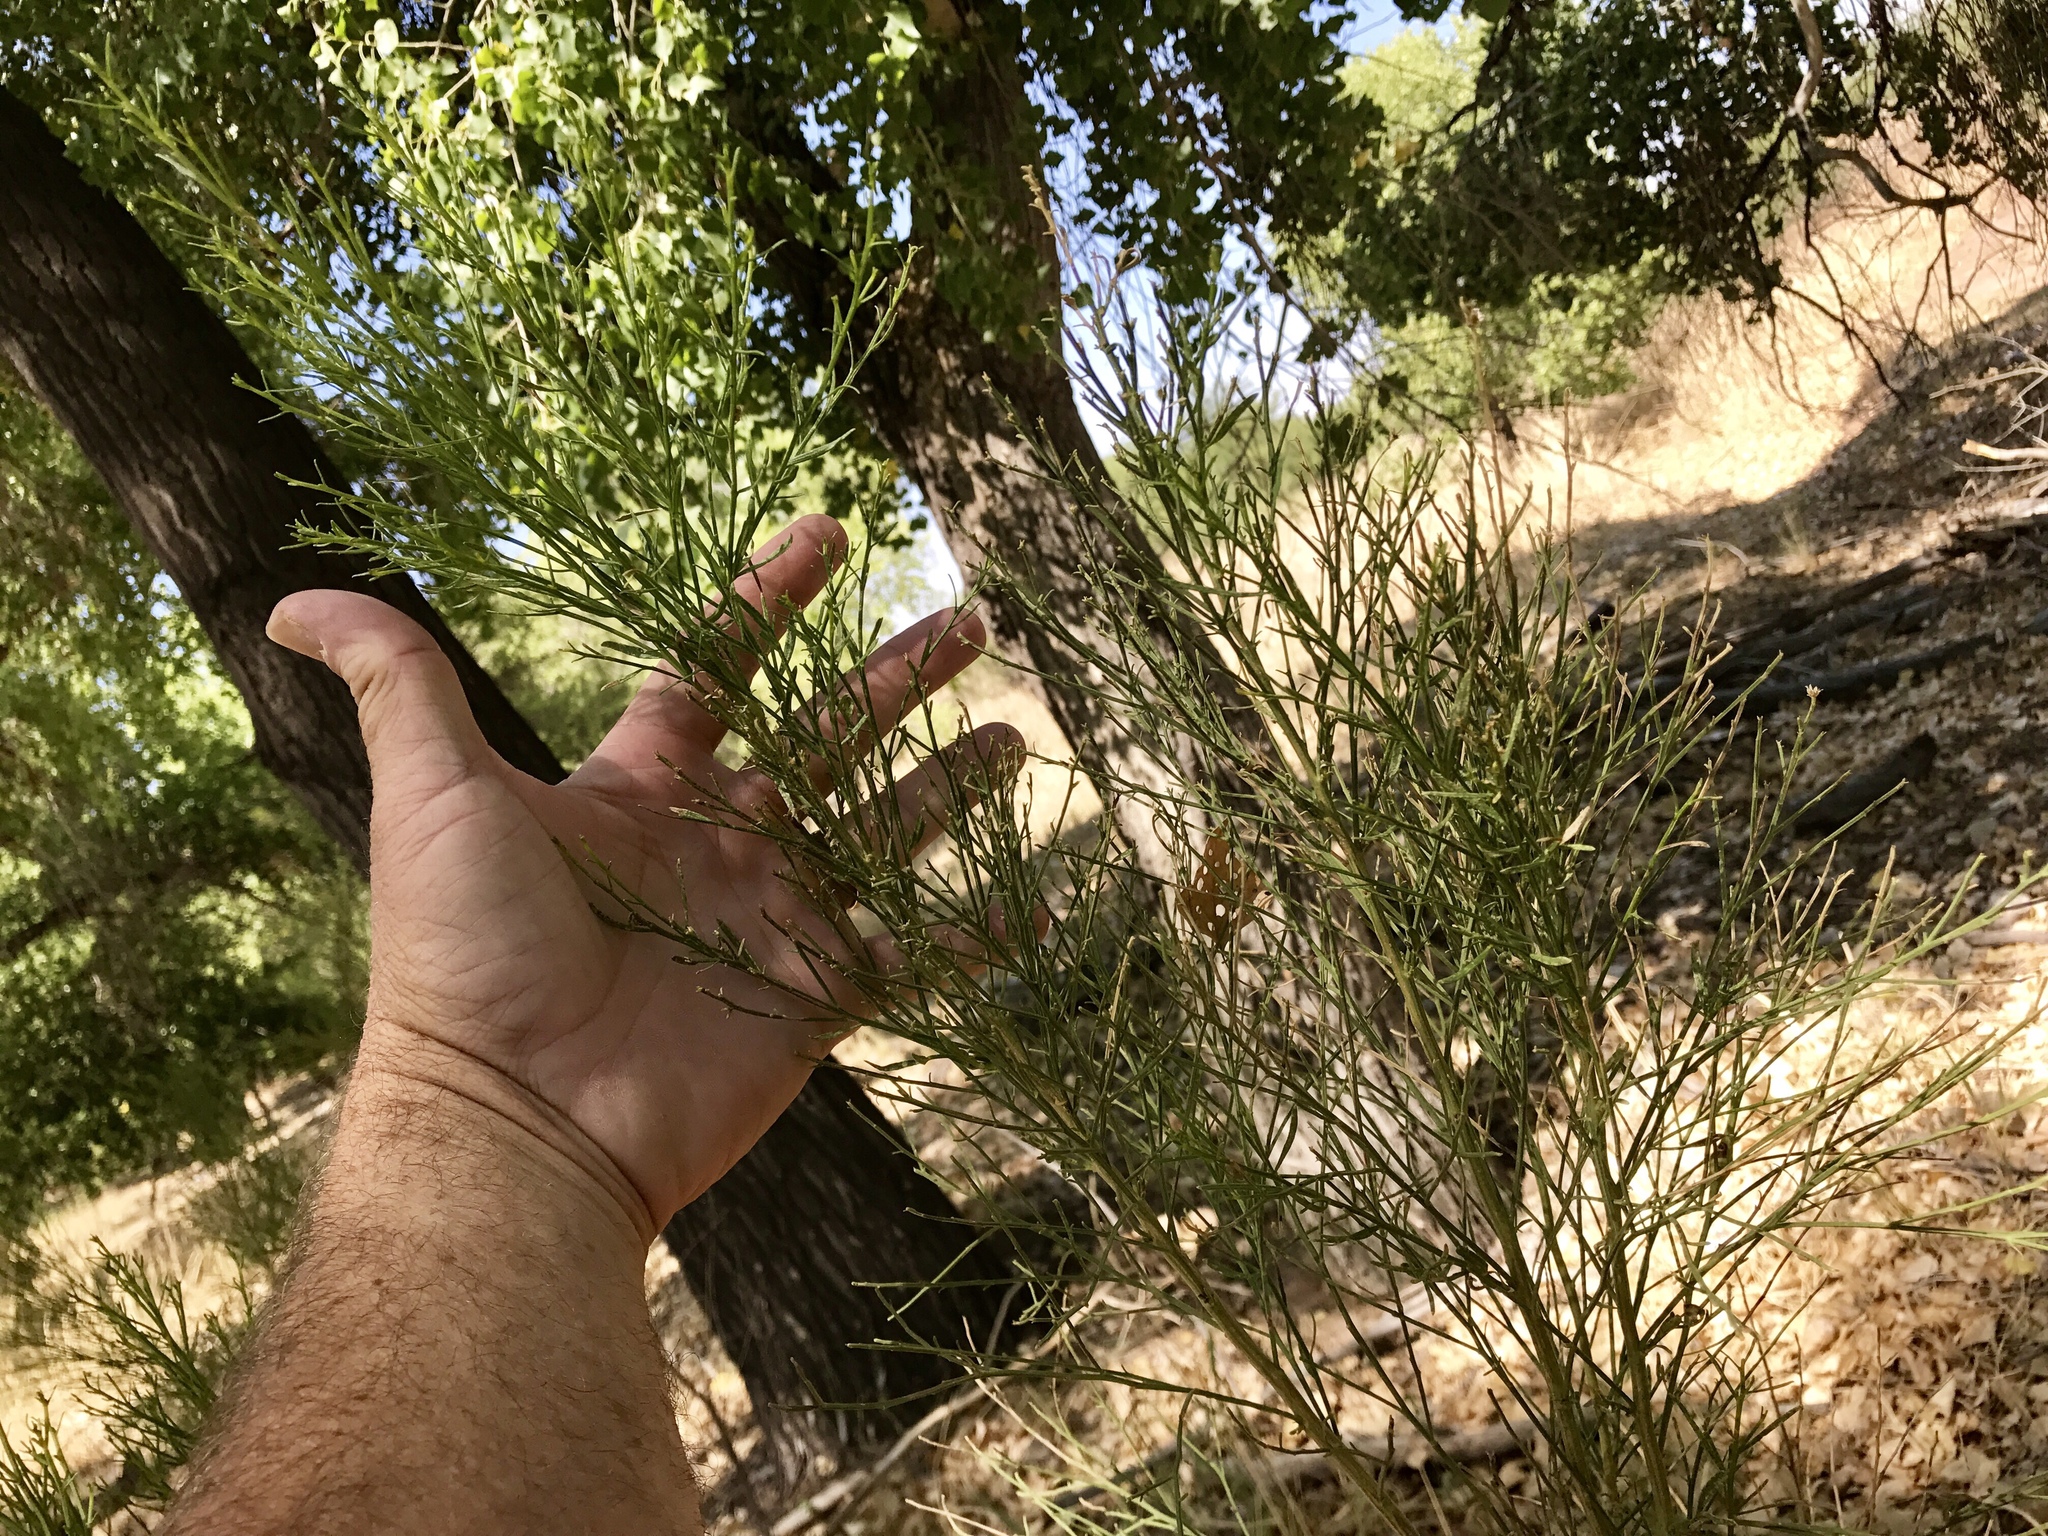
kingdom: Plantae
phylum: Tracheophyta
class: Magnoliopsida
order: Asterales
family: Asteraceae
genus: Baccharis
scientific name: Baccharis sarothroides
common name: Desert-broom
